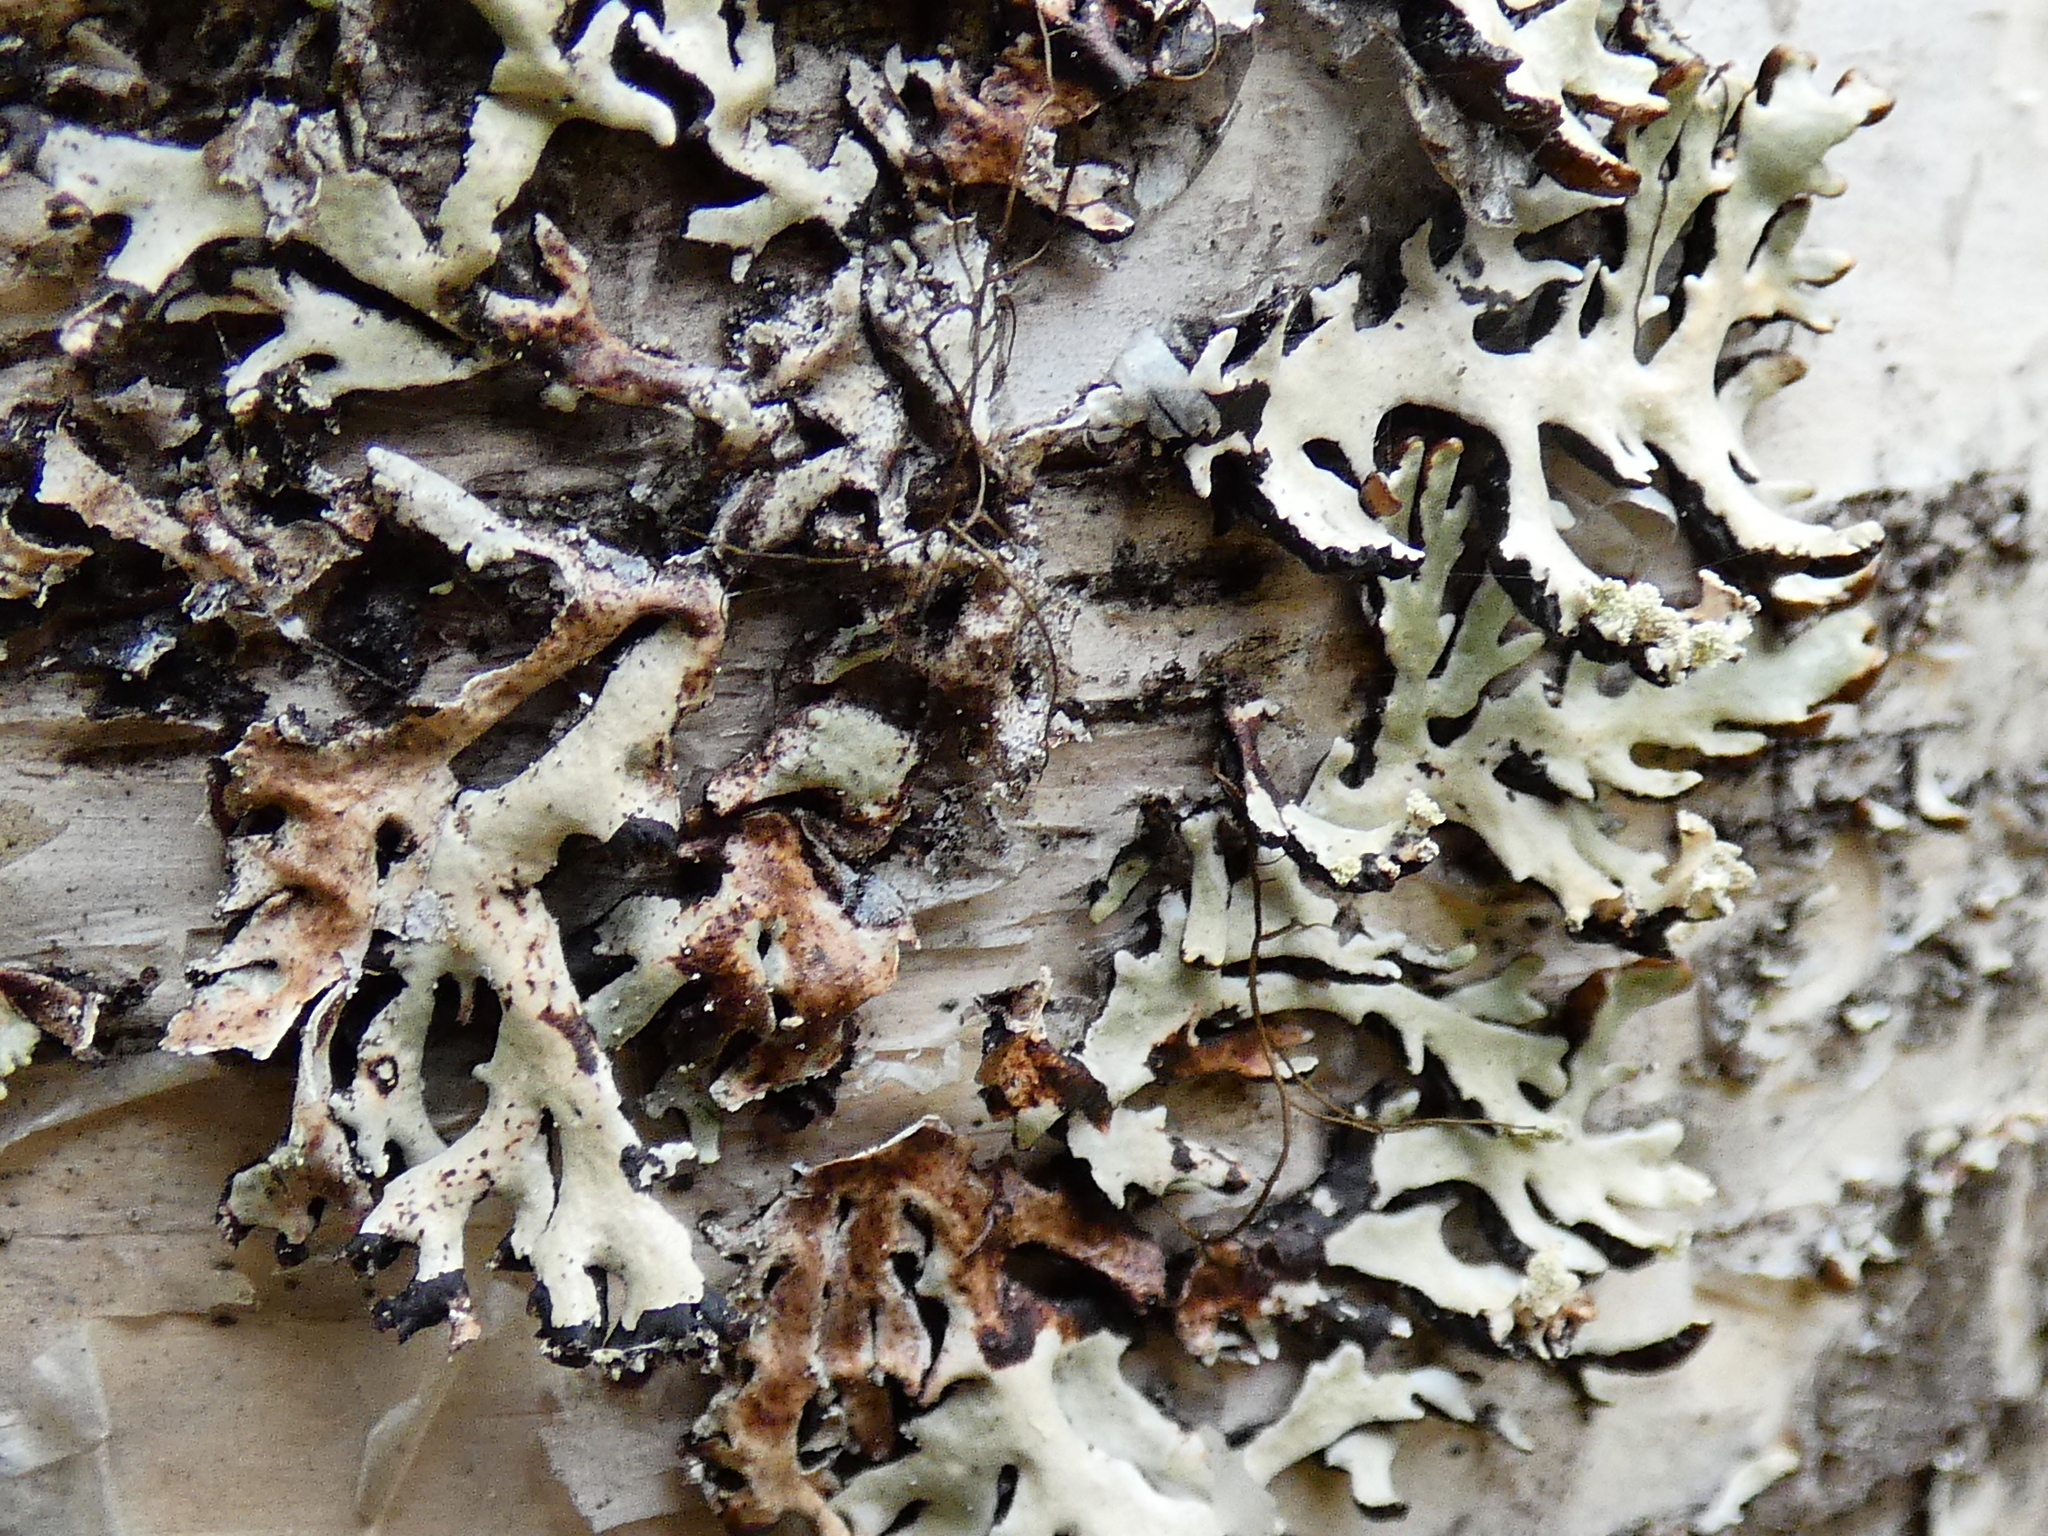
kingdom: Fungi
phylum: Ascomycota
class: Lecanoromycetes
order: Lecanorales
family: Parmeliaceae
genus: Hypogymnia
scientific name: Hypogymnia physodes
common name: Dark crottle
